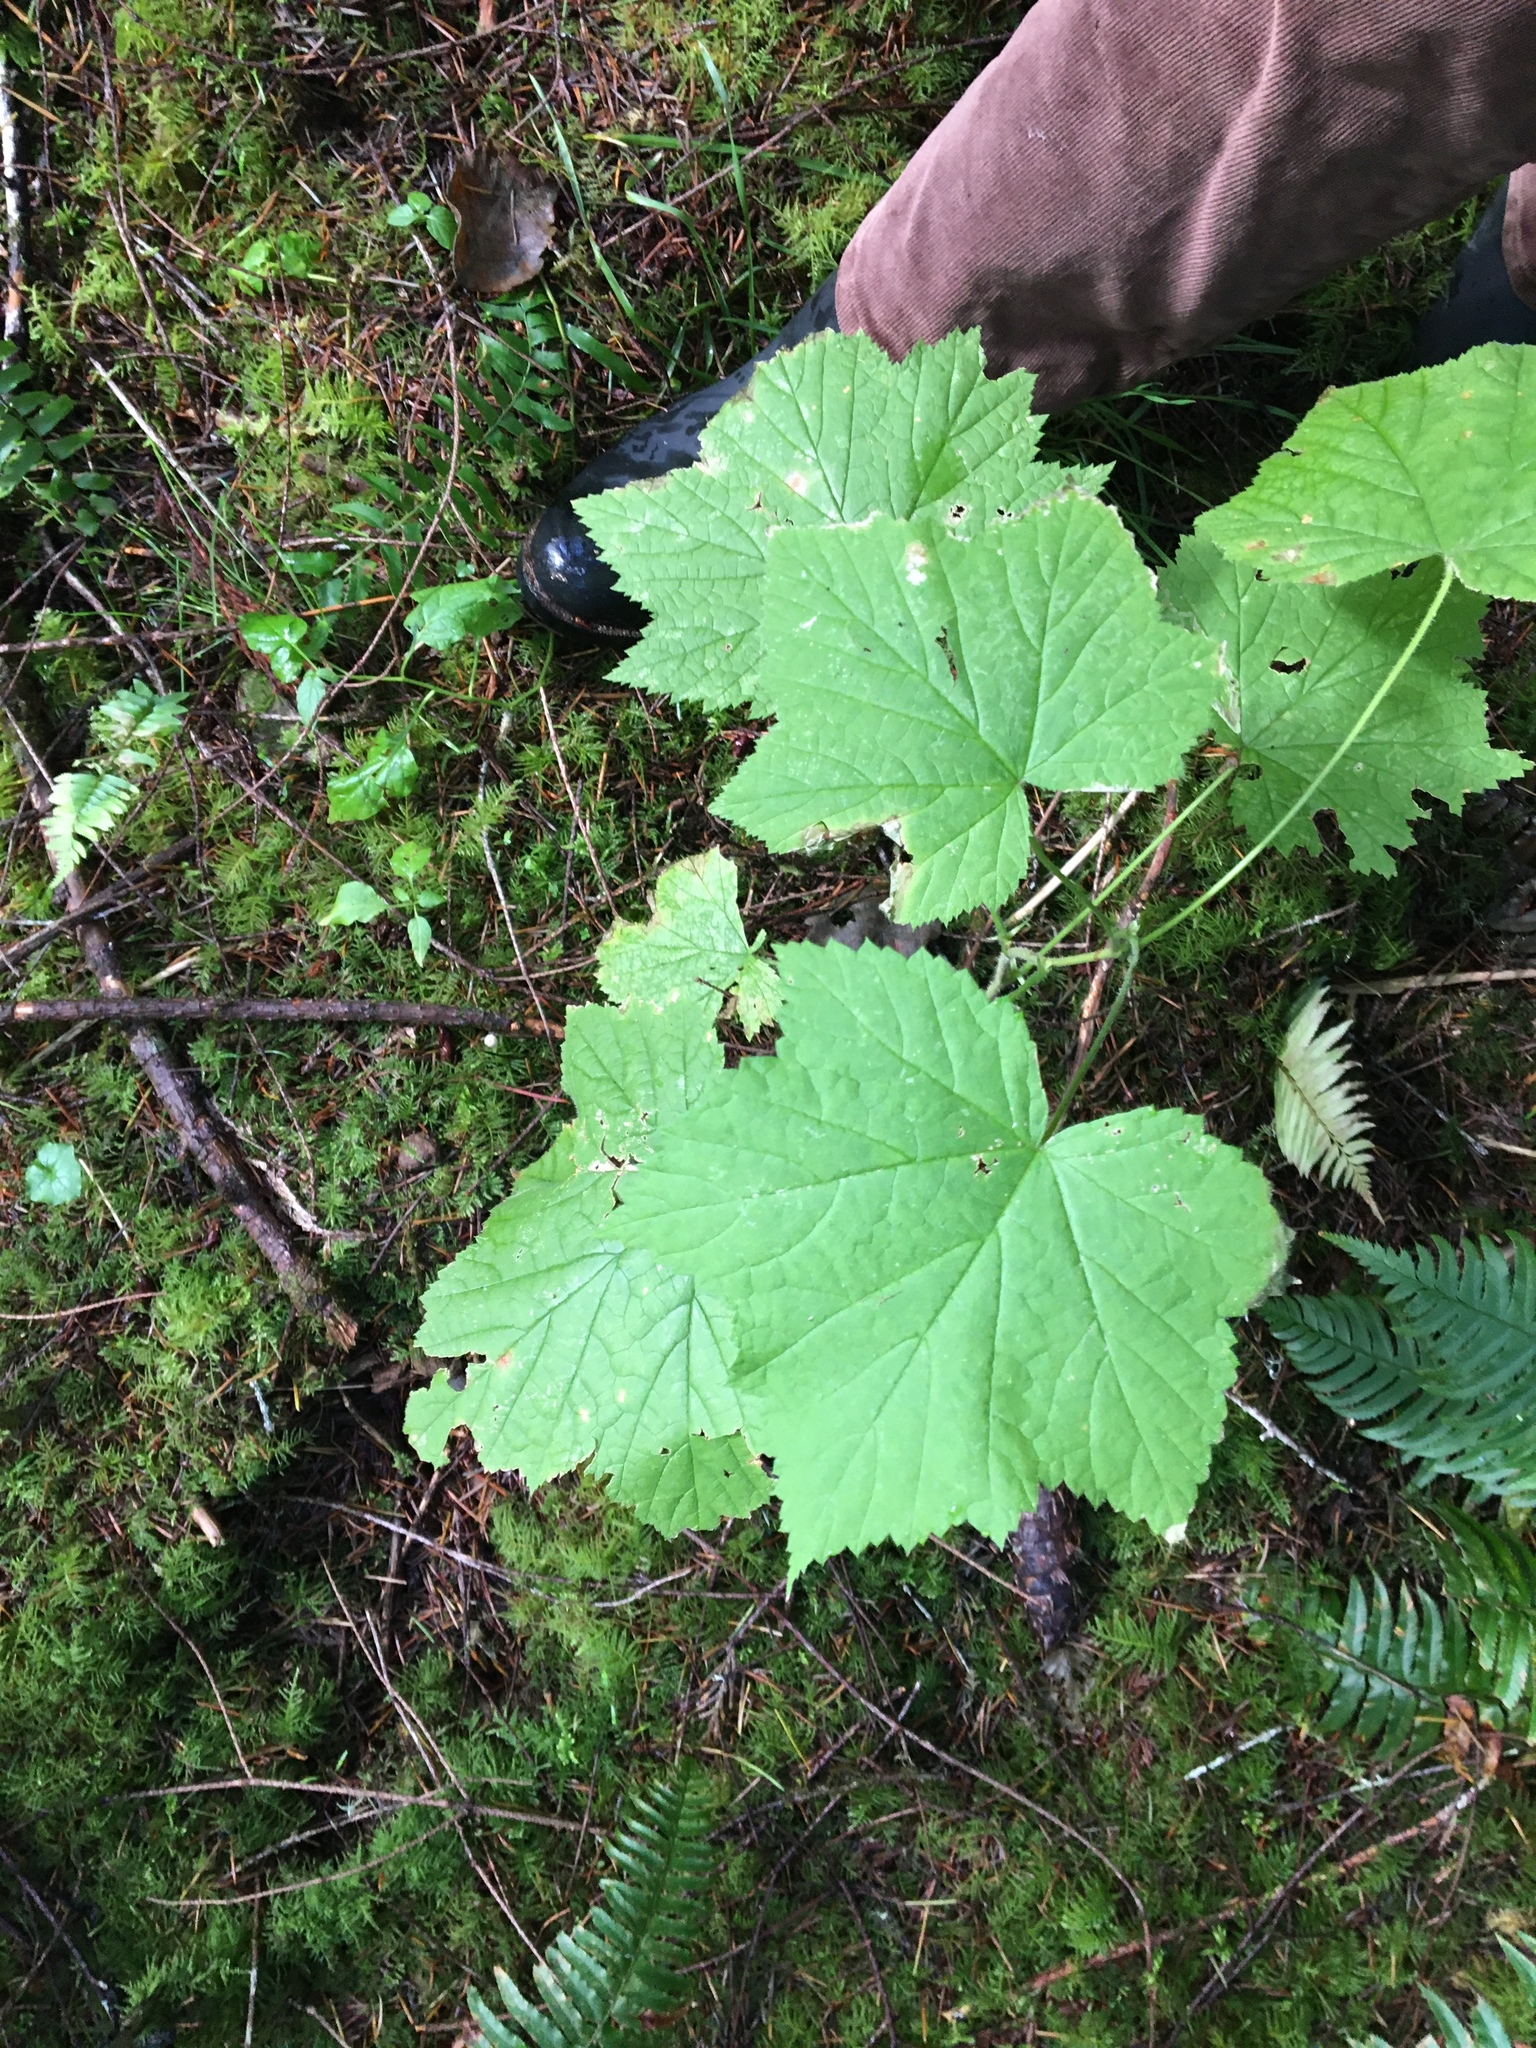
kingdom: Plantae
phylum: Tracheophyta
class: Magnoliopsida
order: Rosales
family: Rosaceae
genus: Rubus
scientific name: Rubus parviflorus
